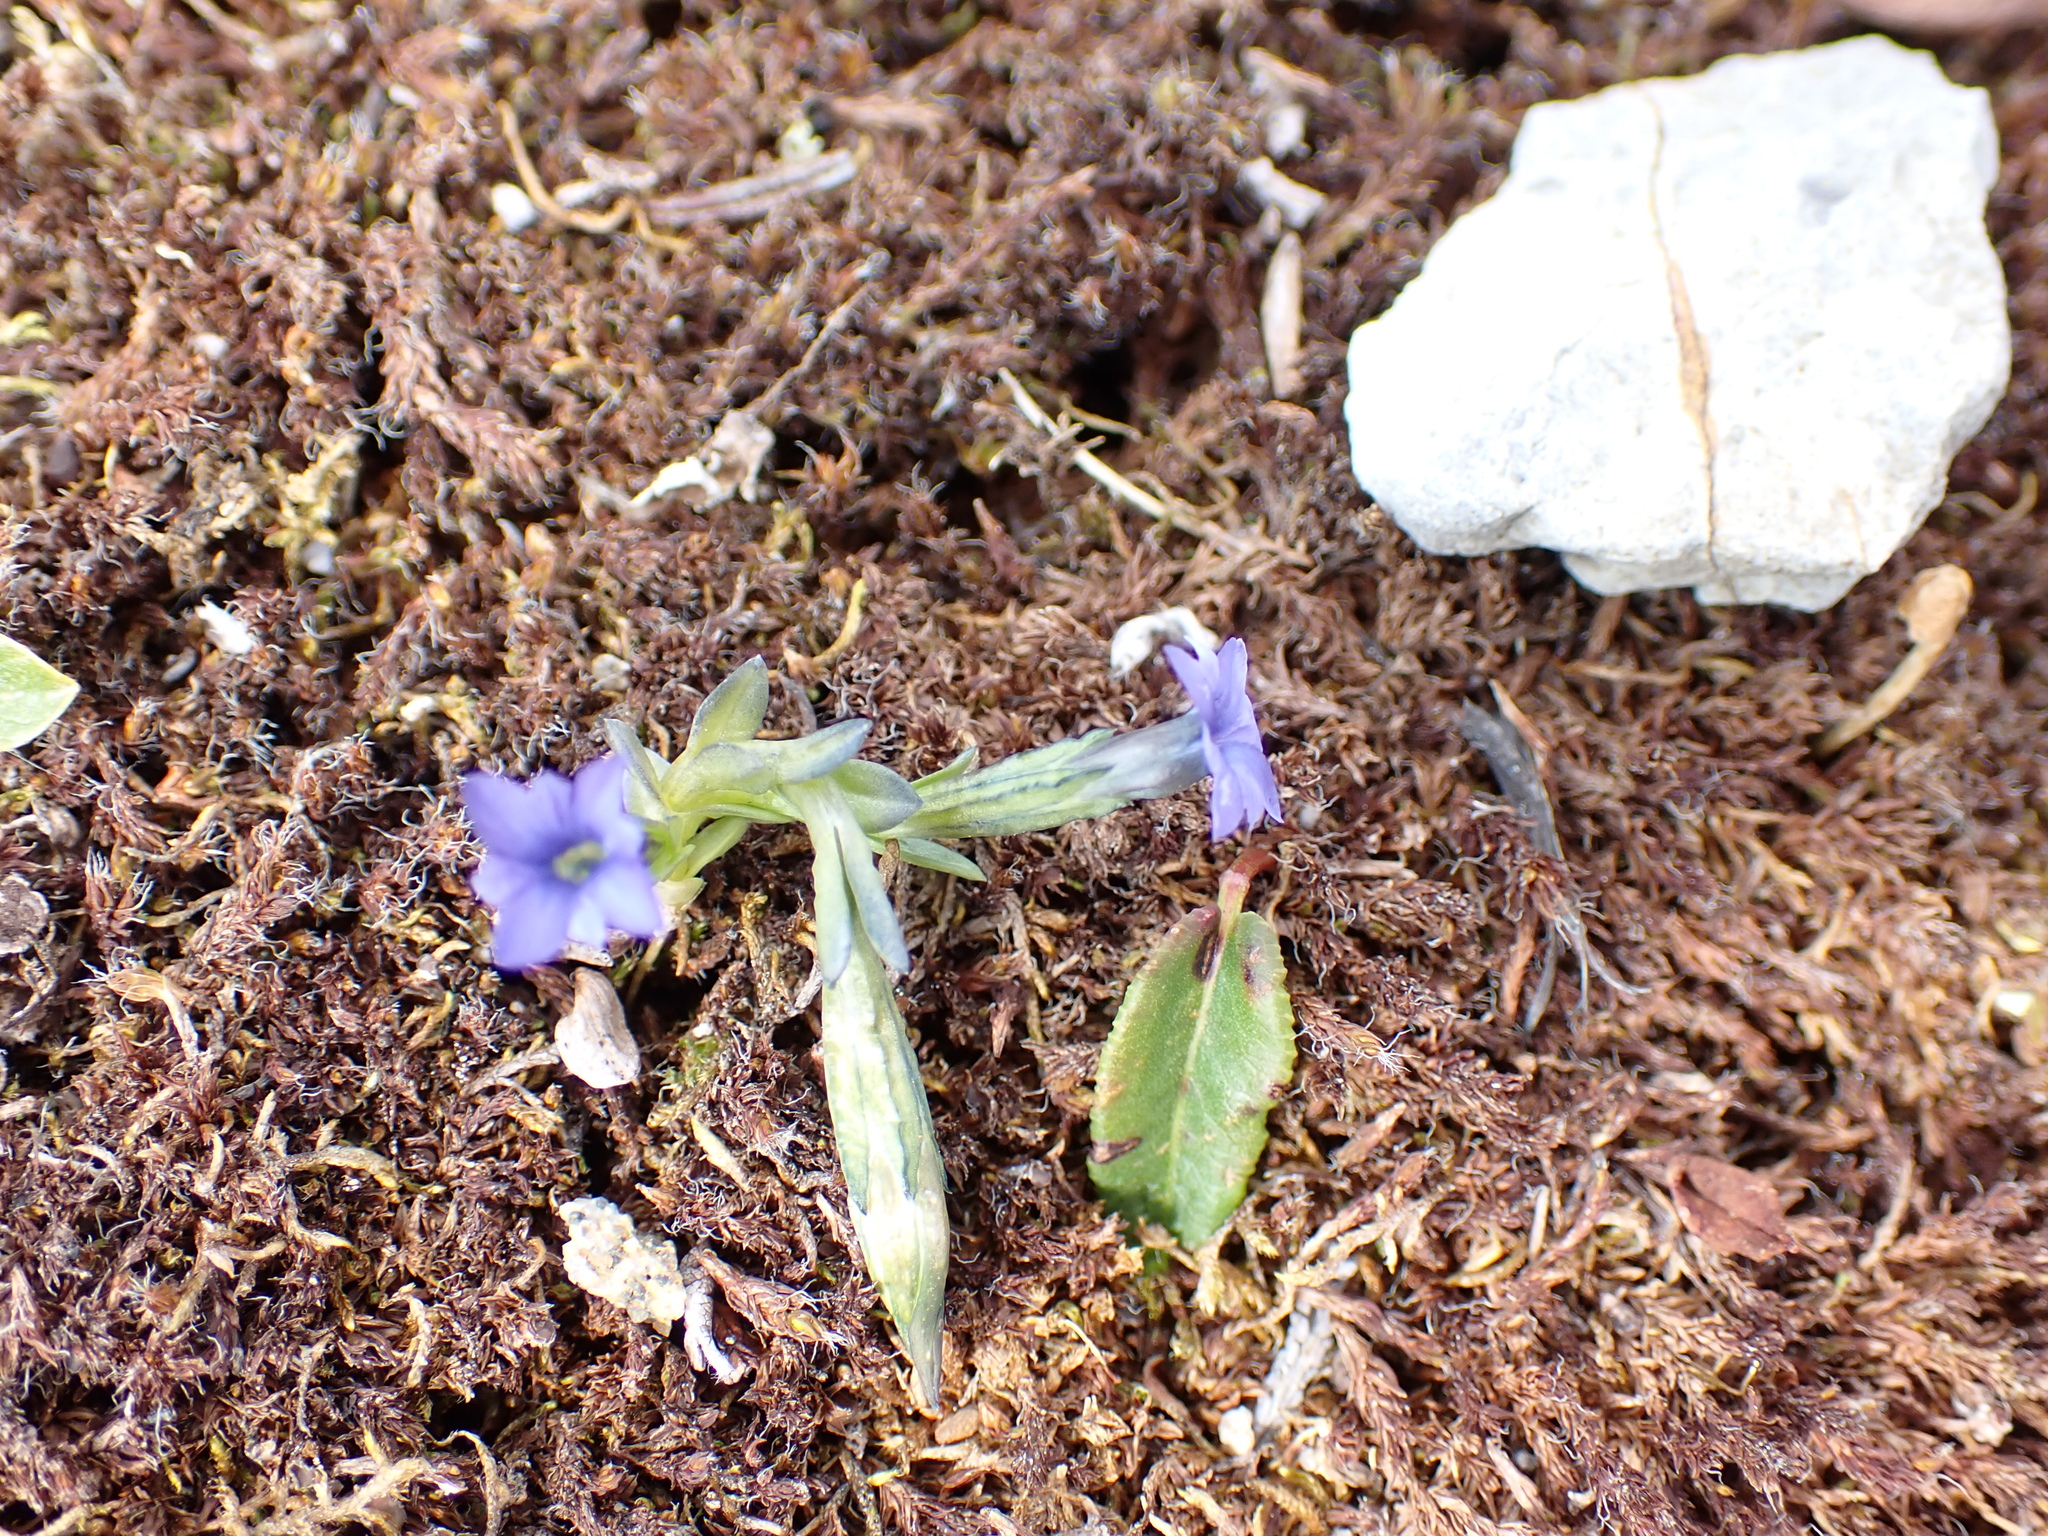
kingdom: Plantae
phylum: Tracheophyta
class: Magnoliopsida
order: Gentianales
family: Gentianaceae
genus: Gentiana
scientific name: Gentiana prostrata
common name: Moss gentian
